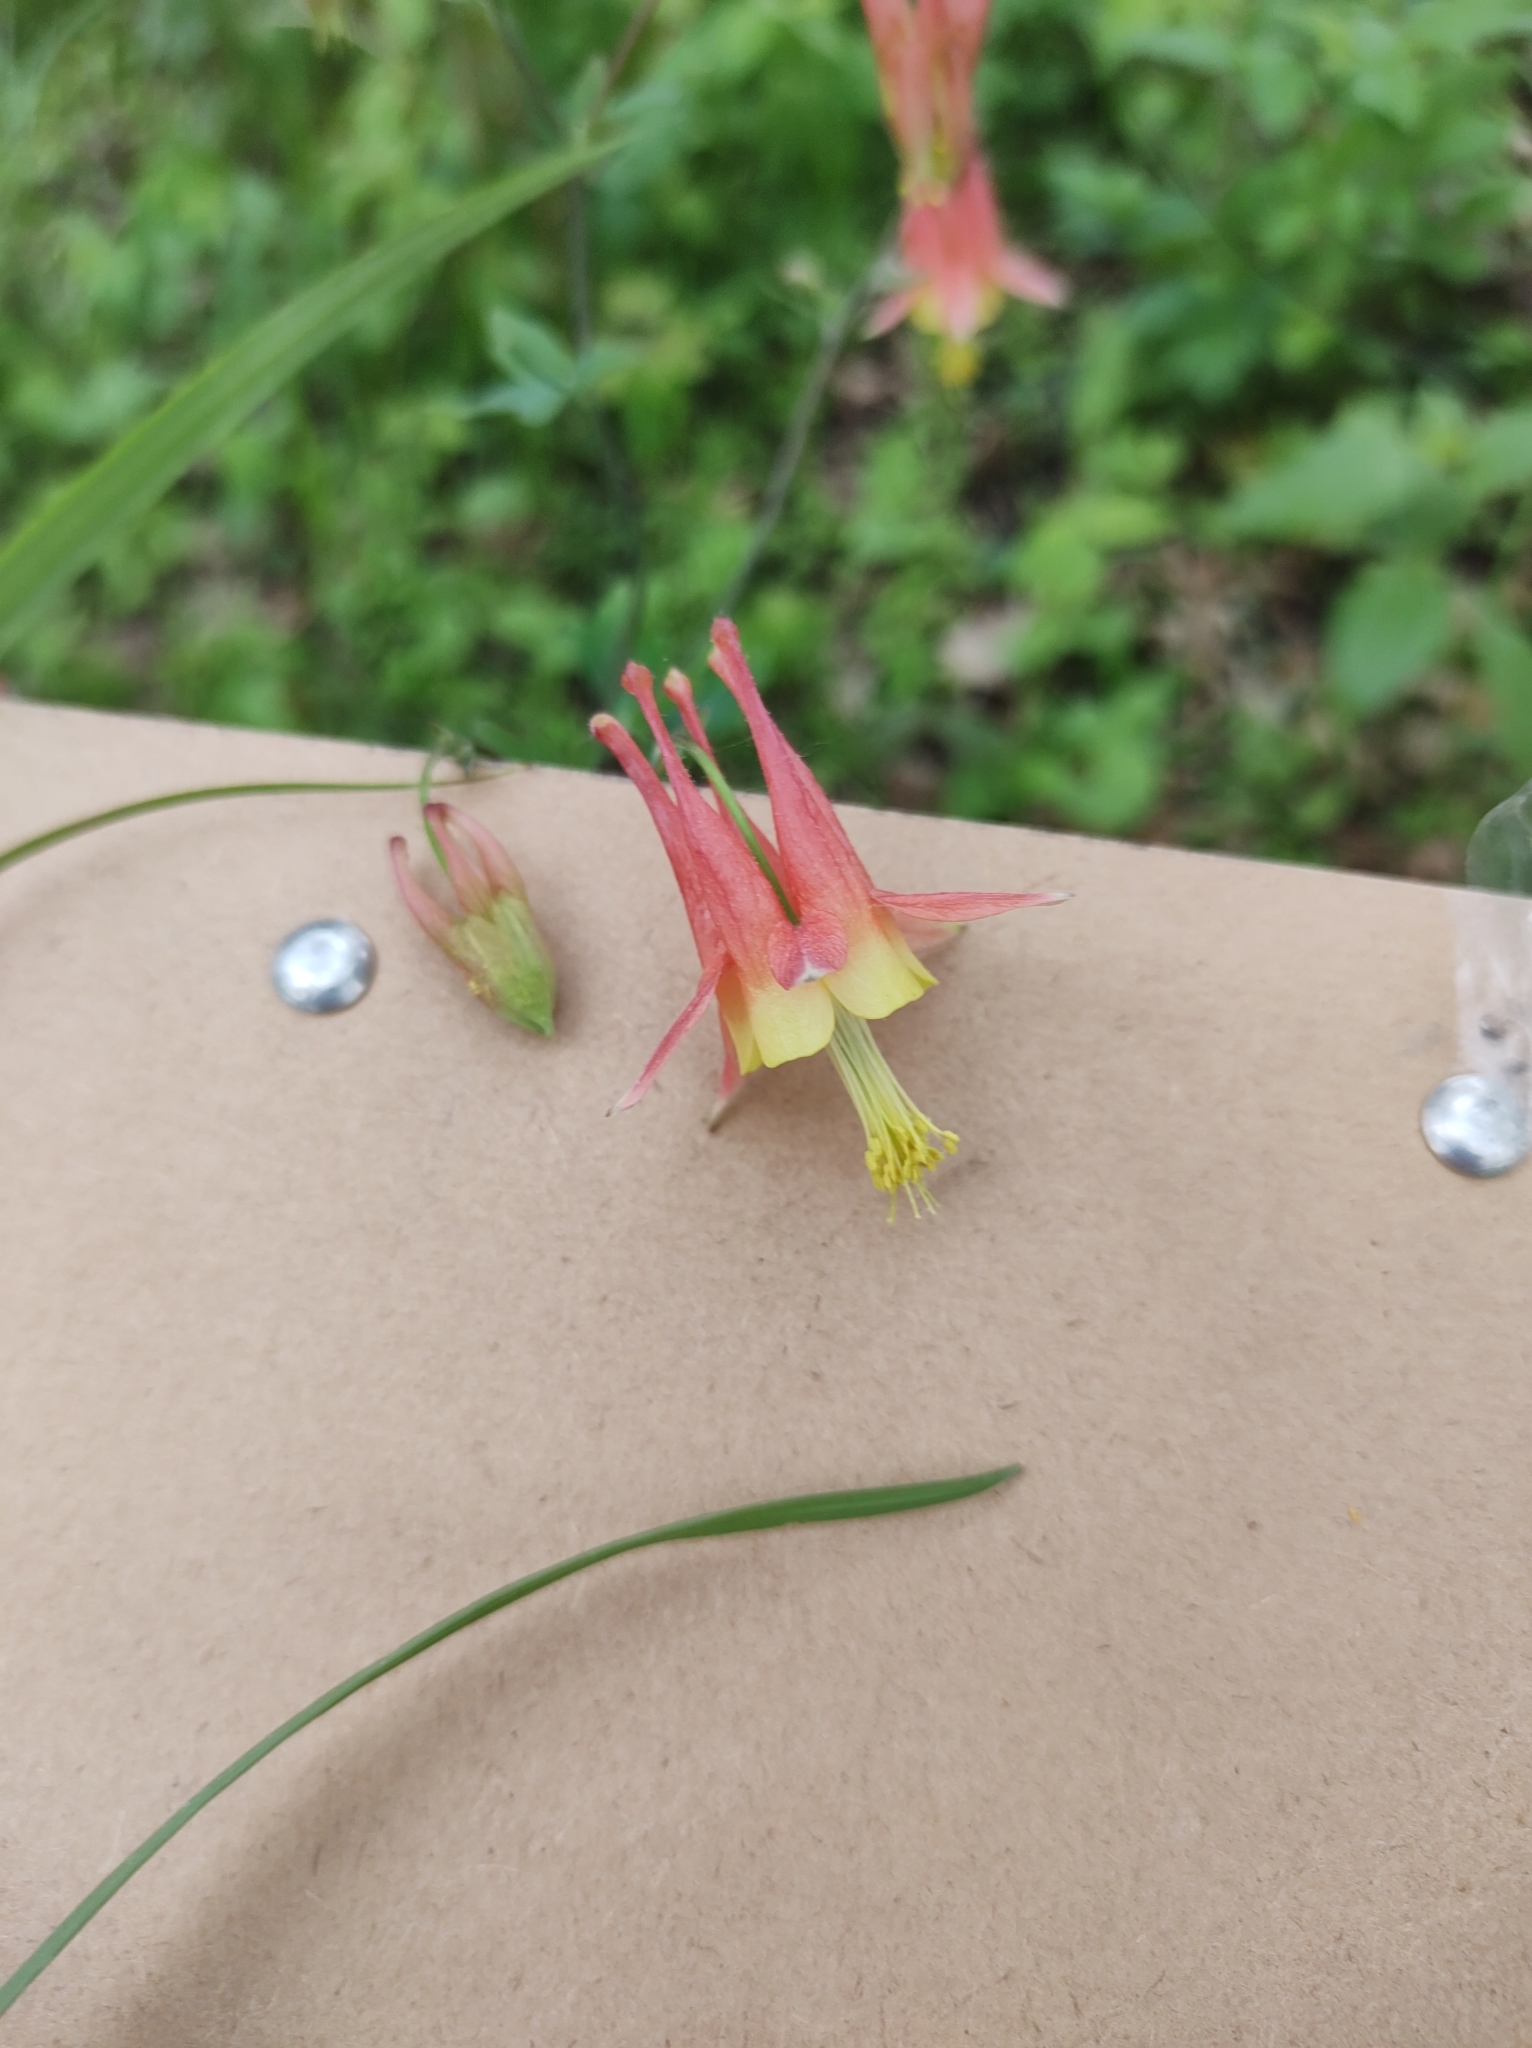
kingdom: Plantae
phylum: Tracheophyta
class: Magnoliopsida
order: Ranunculales
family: Ranunculaceae
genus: Aquilegia
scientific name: Aquilegia canadensis
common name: American columbine
